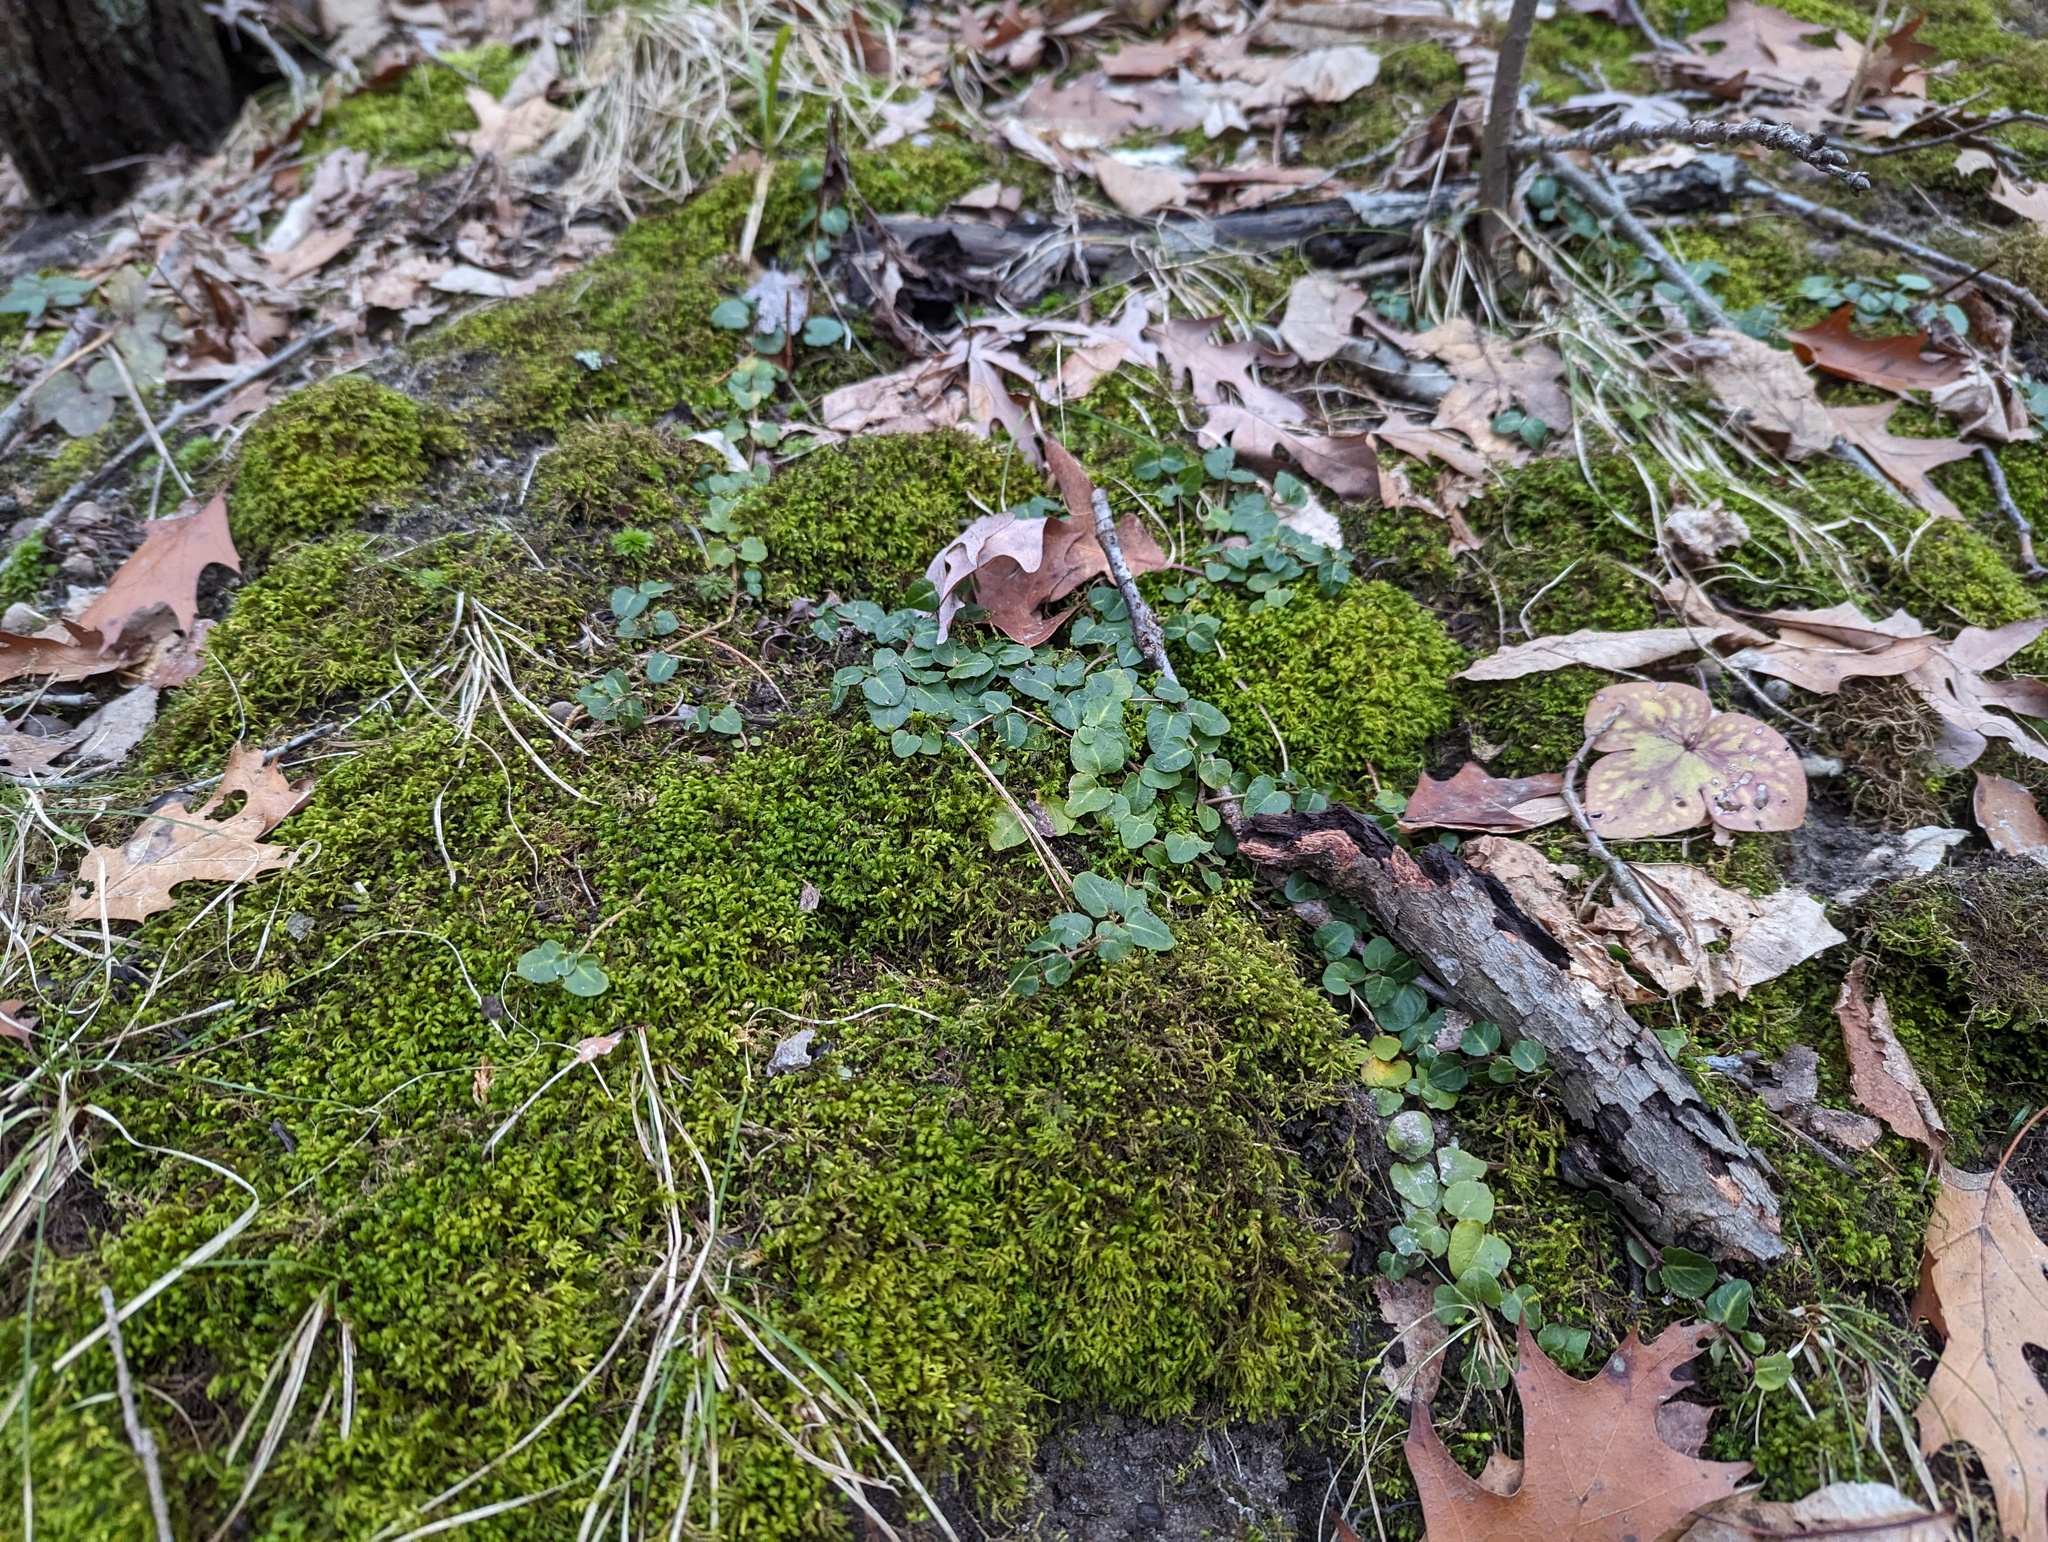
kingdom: Plantae
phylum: Tracheophyta
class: Magnoliopsida
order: Gentianales
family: Rubiaceae
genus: Mitchella
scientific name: Mitchella repens
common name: Partridge-berry
